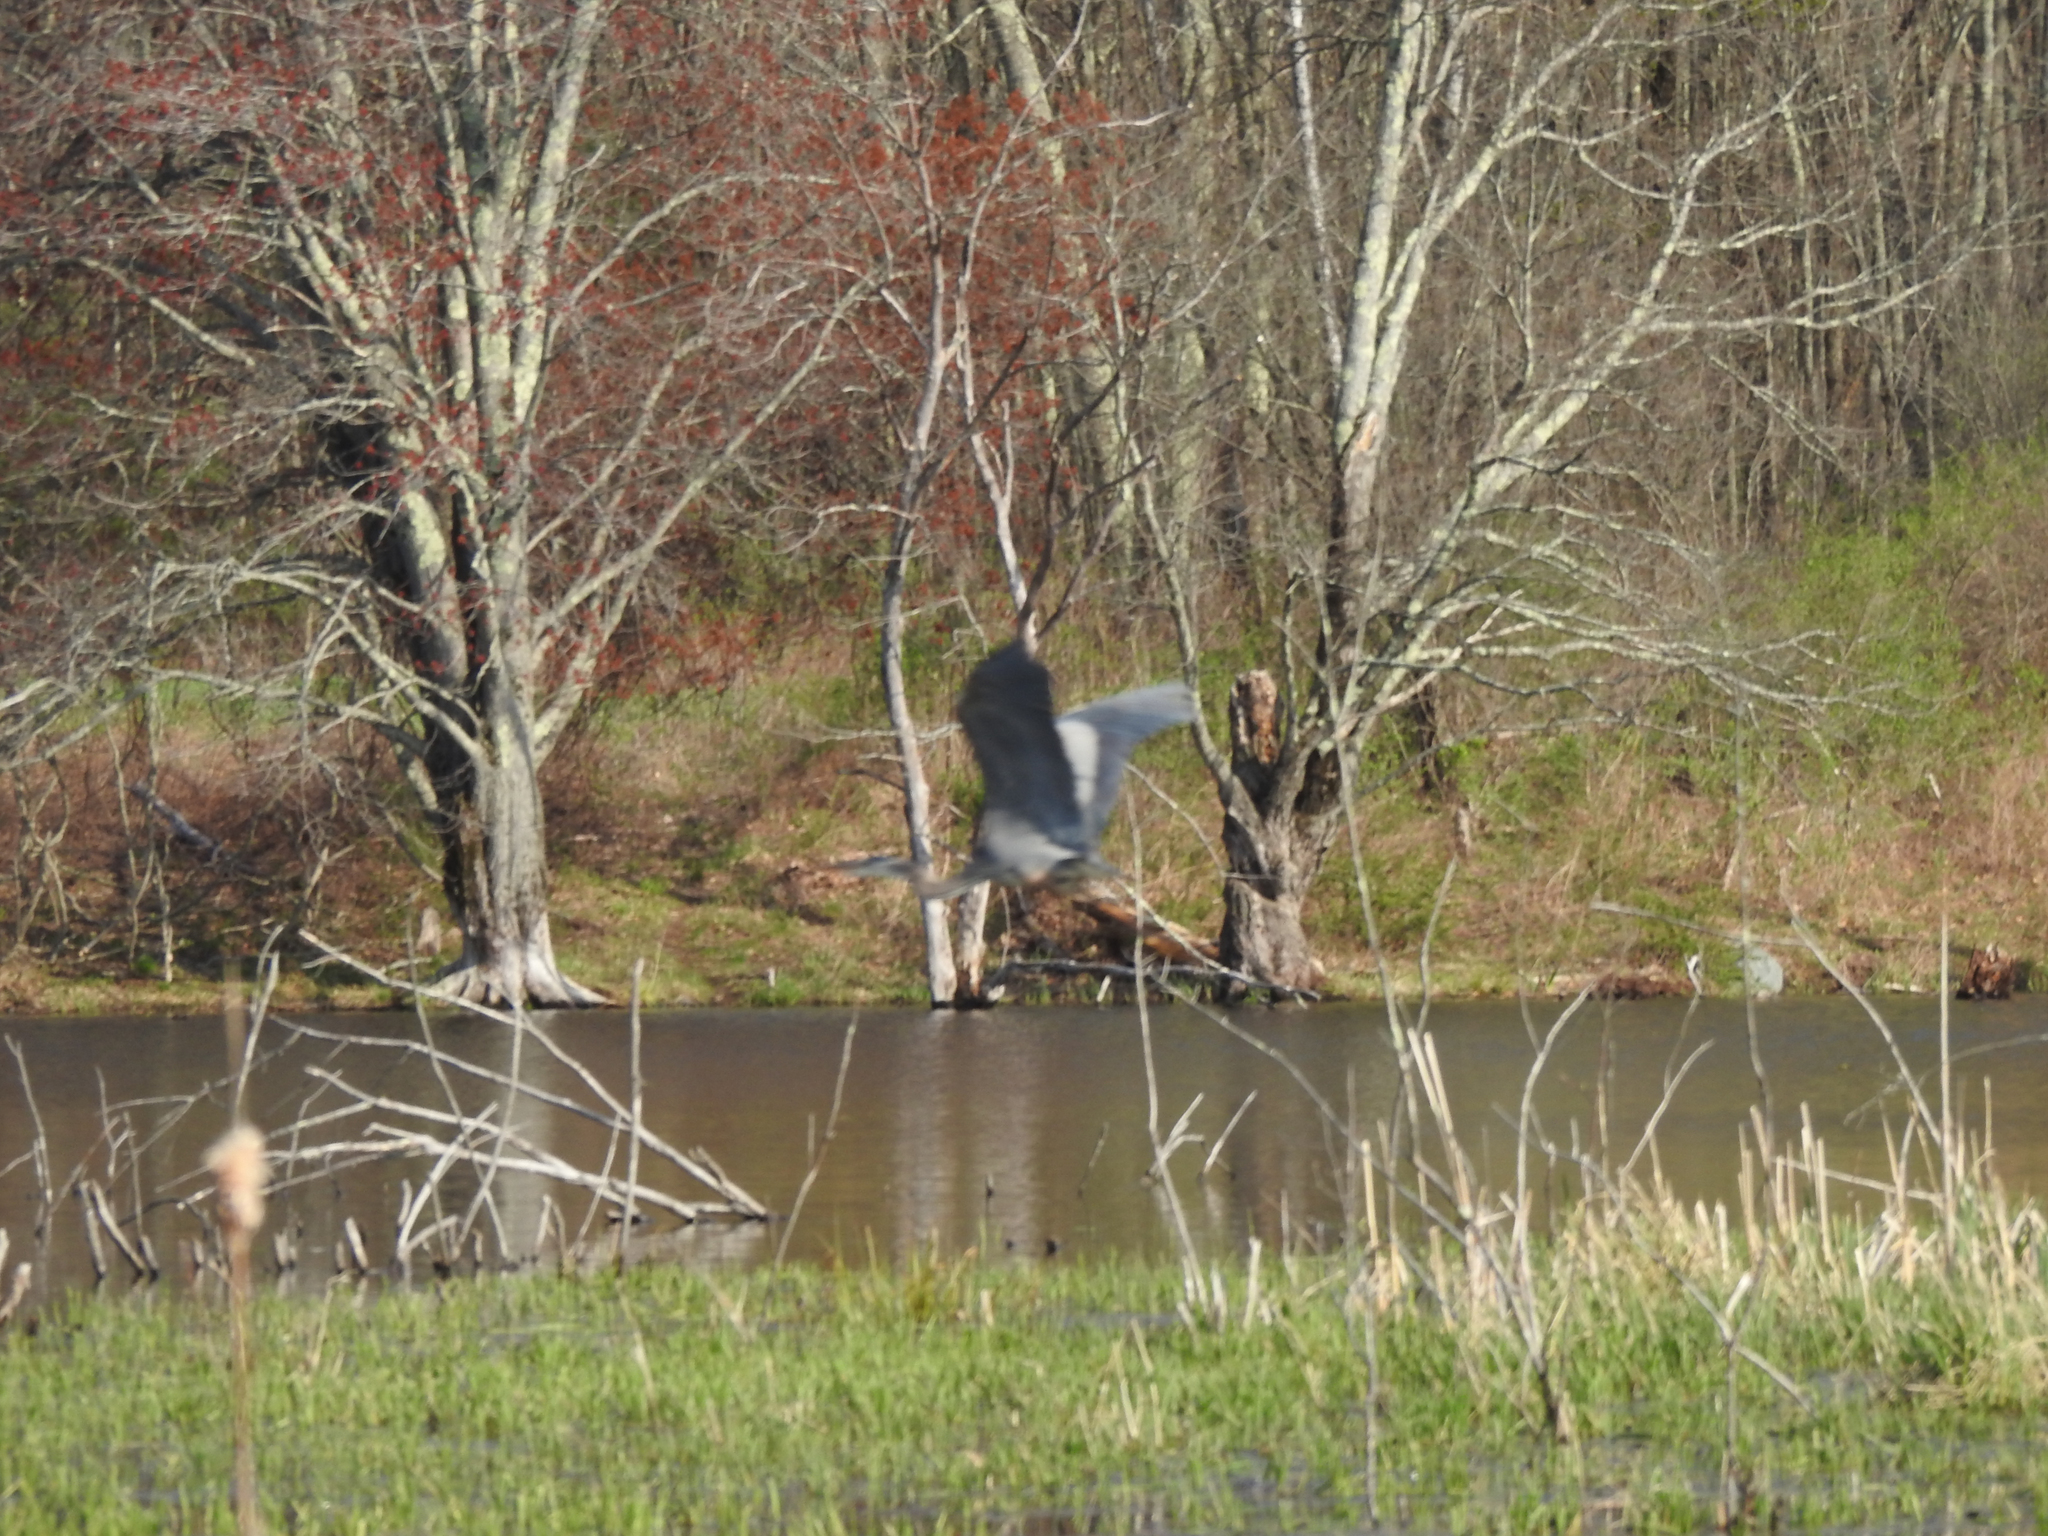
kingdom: Animalia
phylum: Chordata
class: Aves
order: Pelecaniformes
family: Ardeidae
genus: Ardea
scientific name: Ardea herodias
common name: Great blue heron
